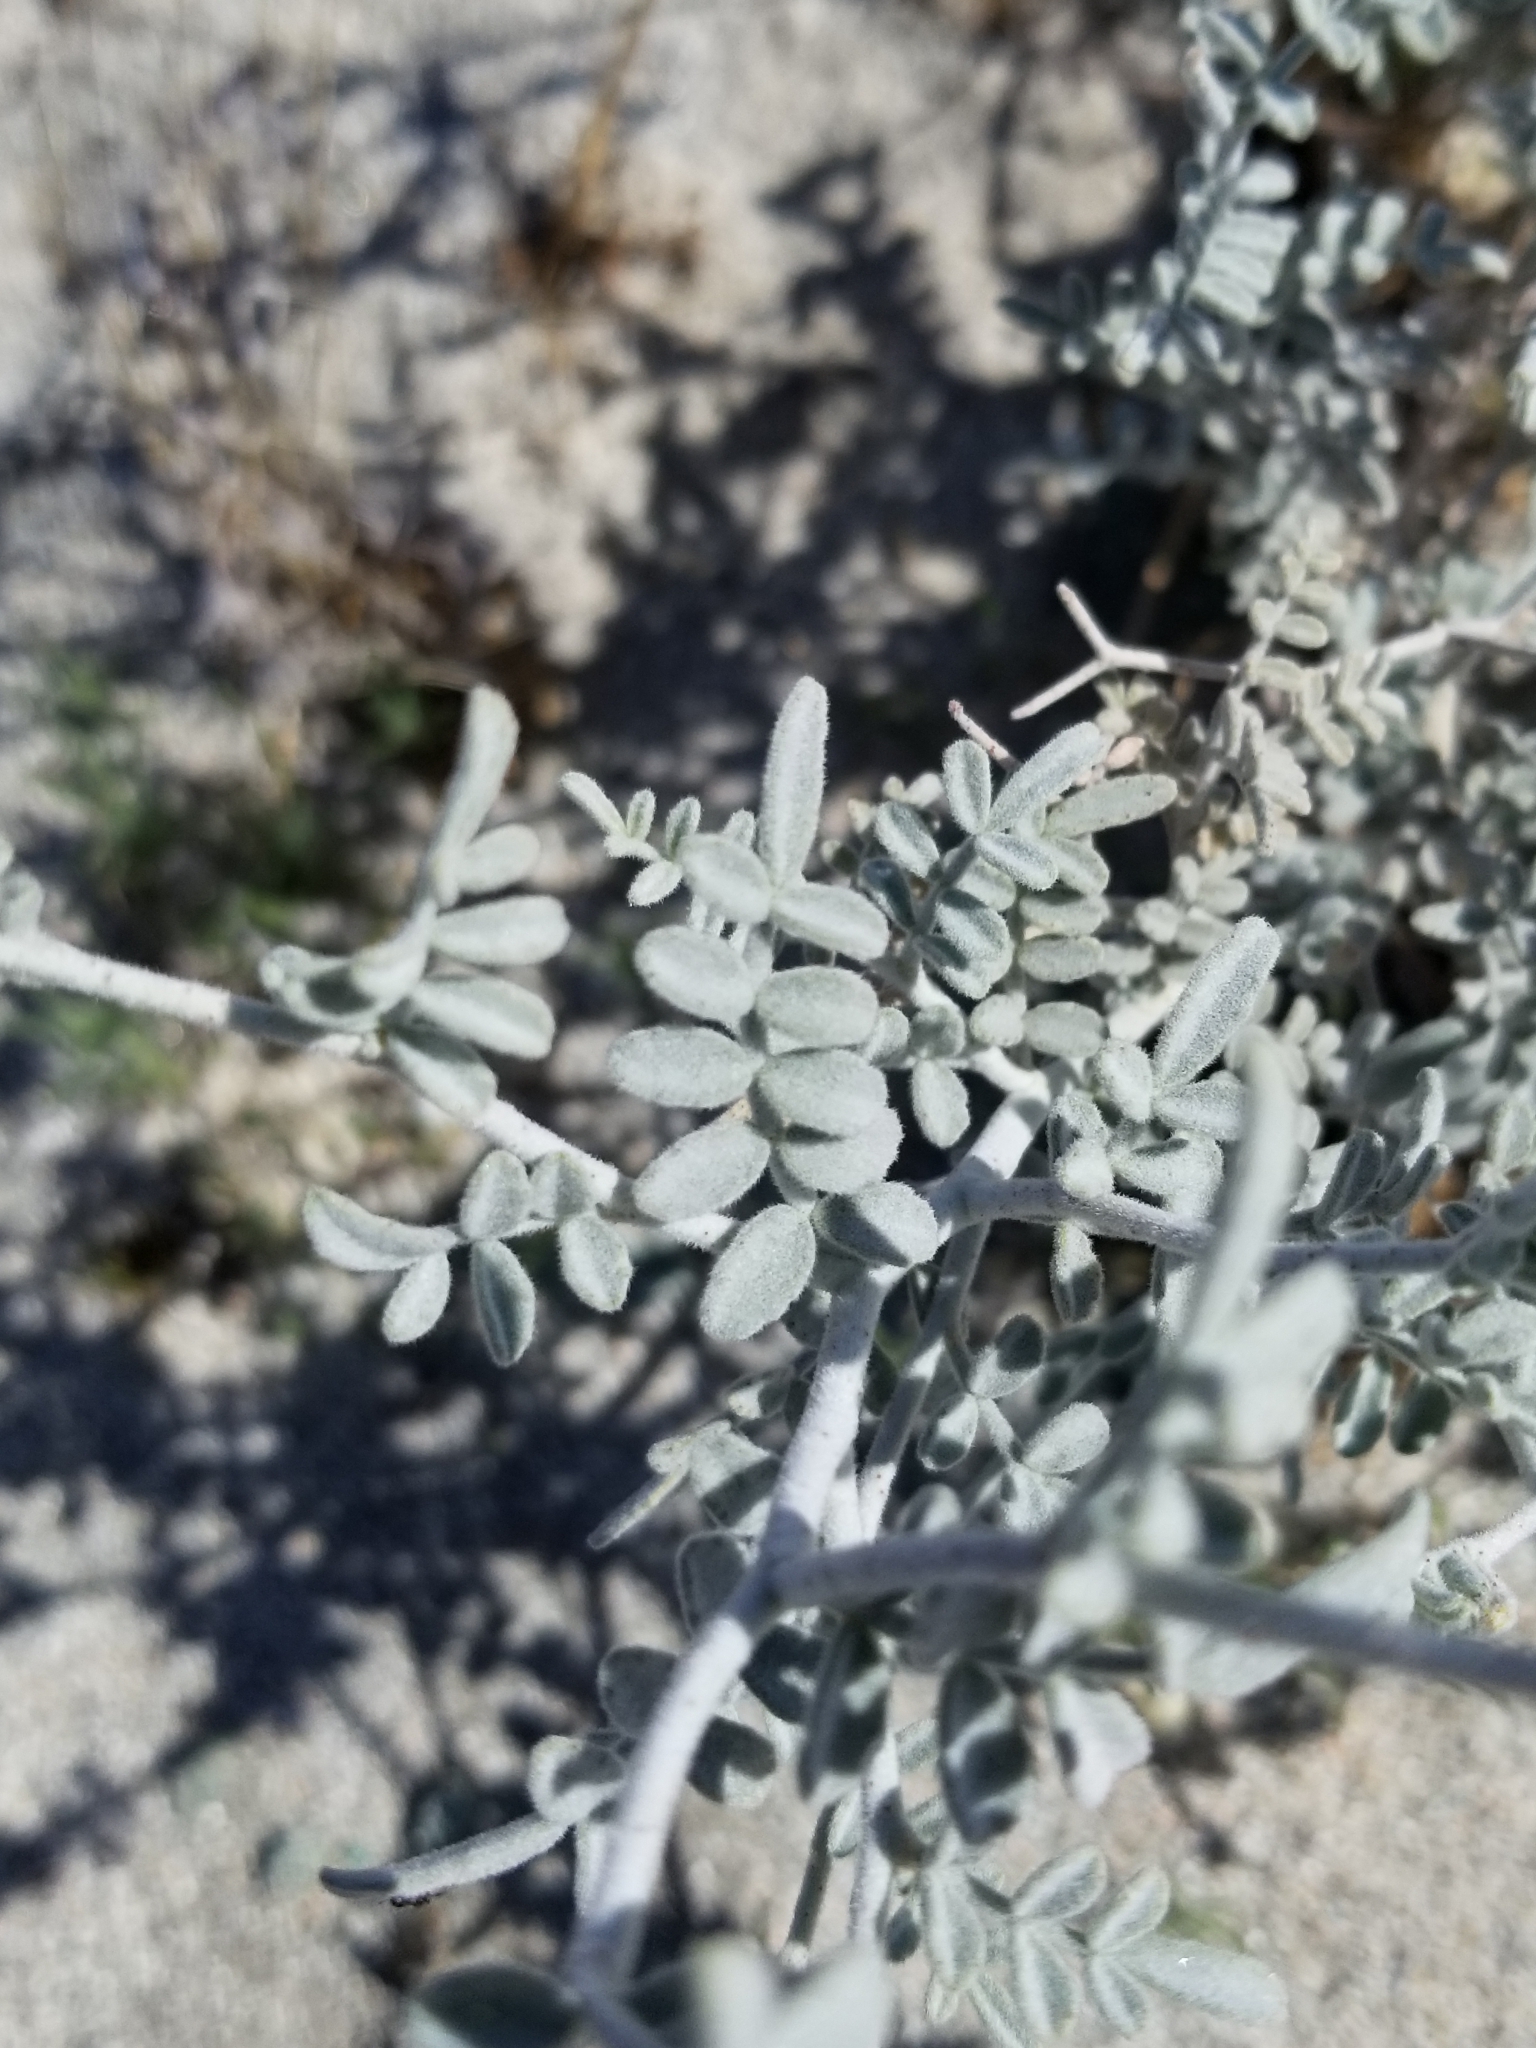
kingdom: Plantae
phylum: Tracheophyta
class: Magnoliopsida
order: Fabales
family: Fabaceae
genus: Psorothamnus
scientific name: Psorothamnus emoryi
